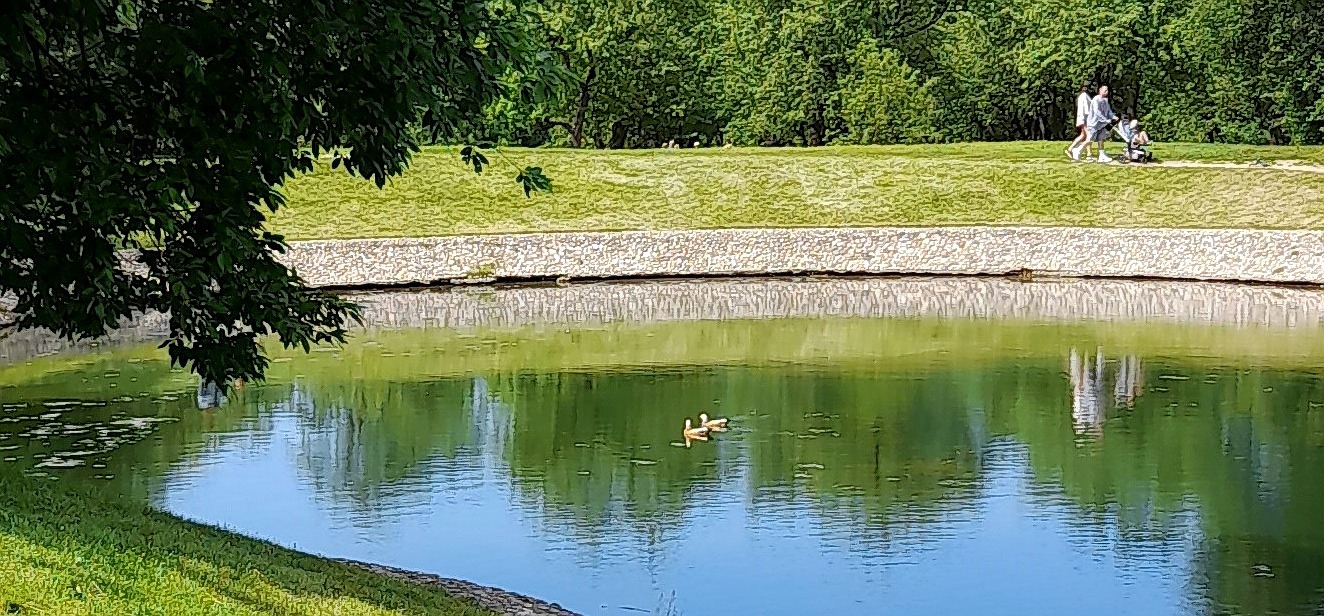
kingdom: Animalia
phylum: Chordata
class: Aves
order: Anseriformes
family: Anatidae
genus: Tadorna
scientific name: Tadorna ferruginea
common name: Ruddy shelduck
